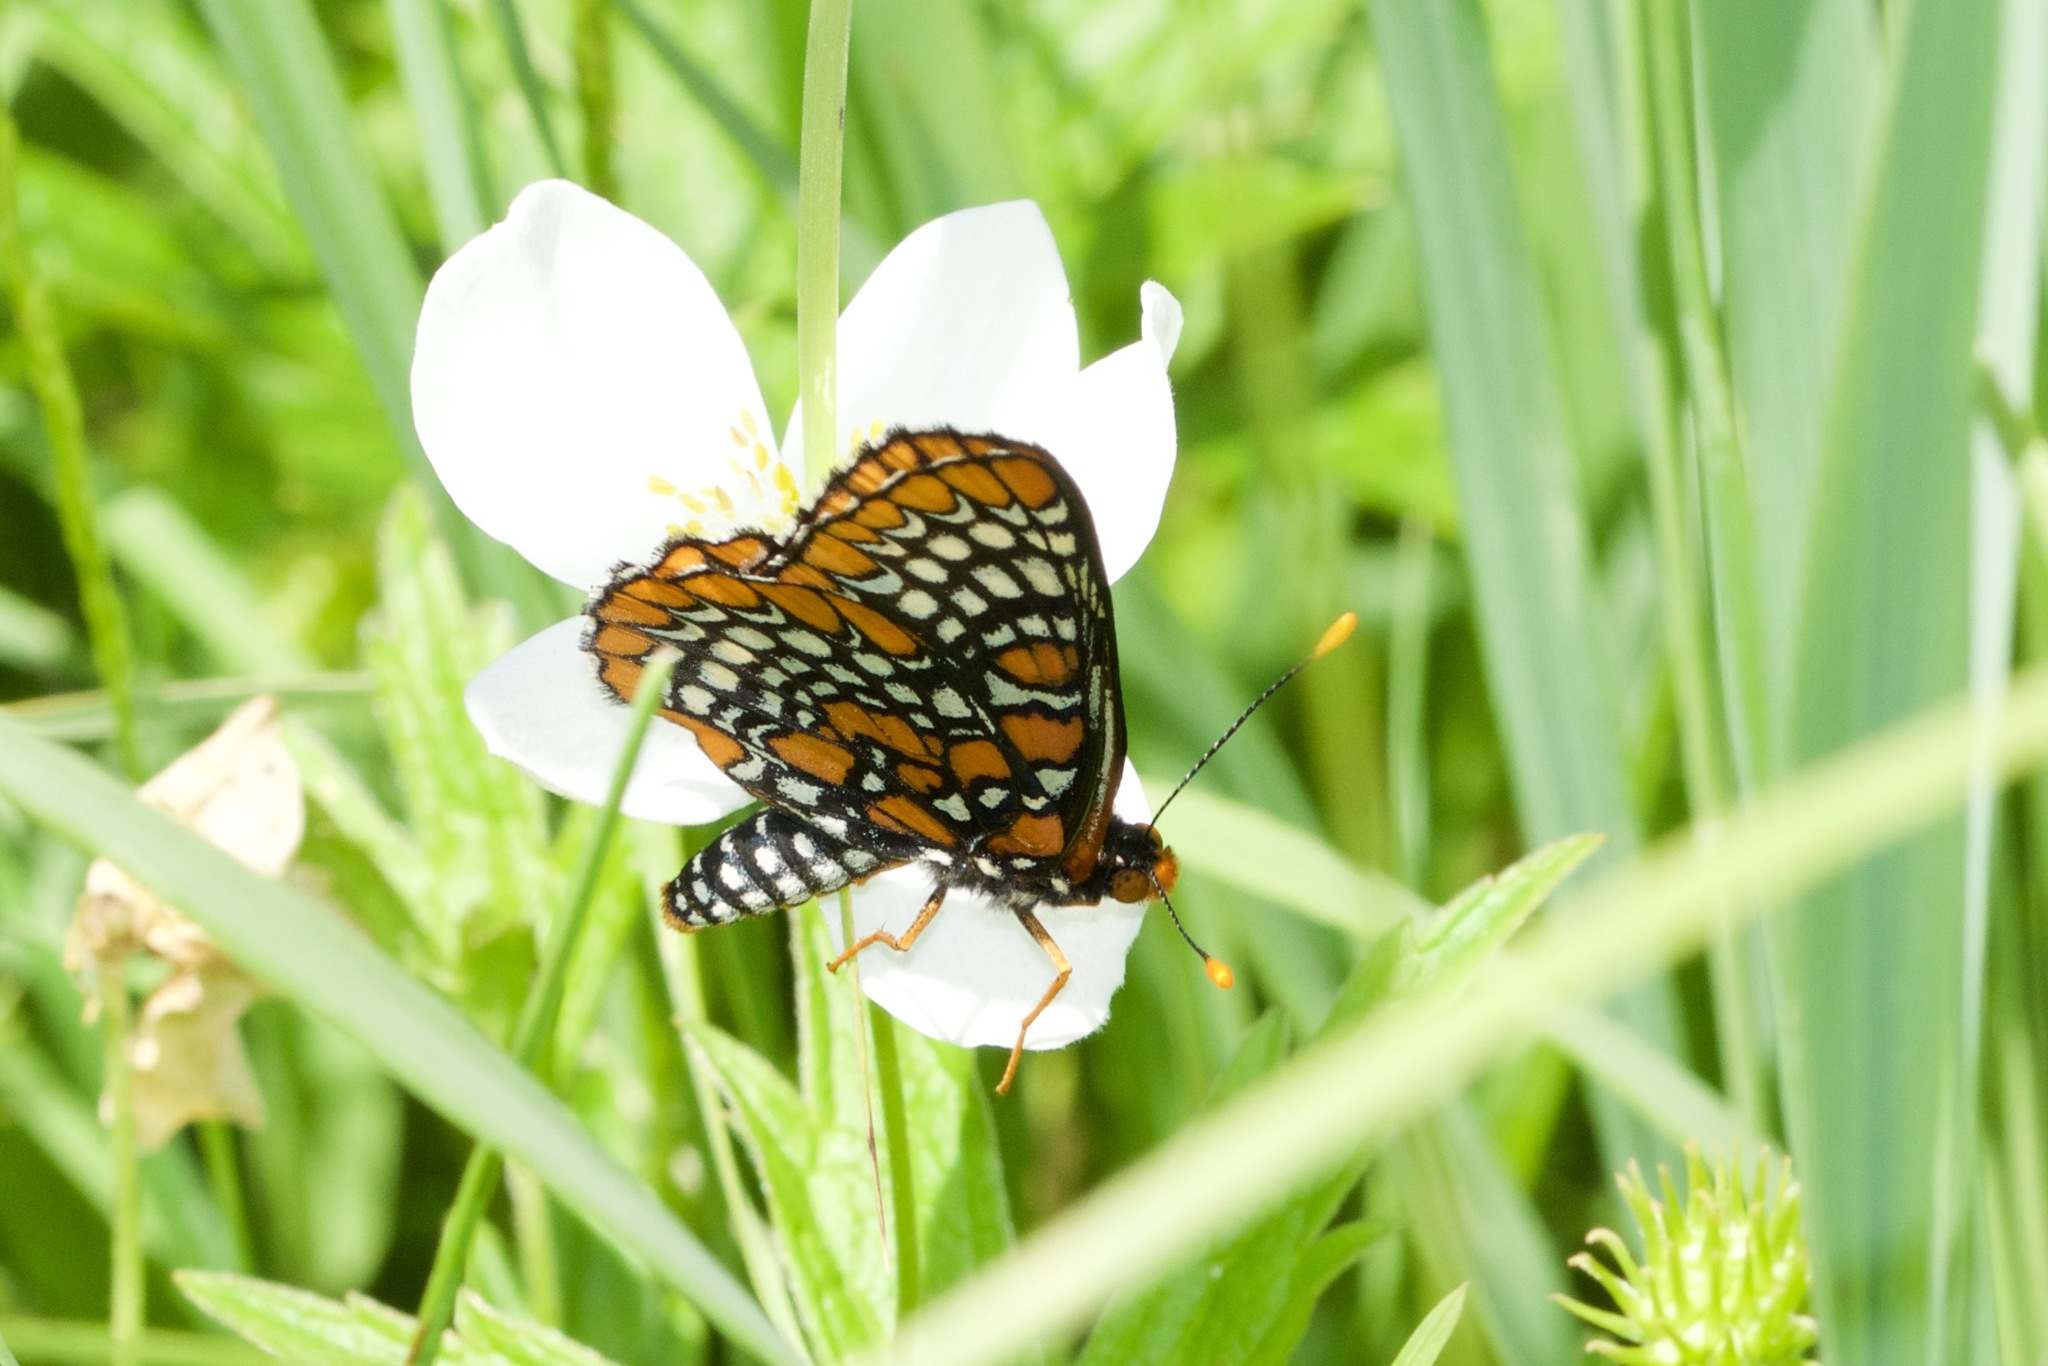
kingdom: Animalia
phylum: Arthropoda
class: Insecta
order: Lepidoptera
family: Nymphalidae
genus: Euphydryas
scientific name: Euphydryas phaeton
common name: Baltimore checkerspot
